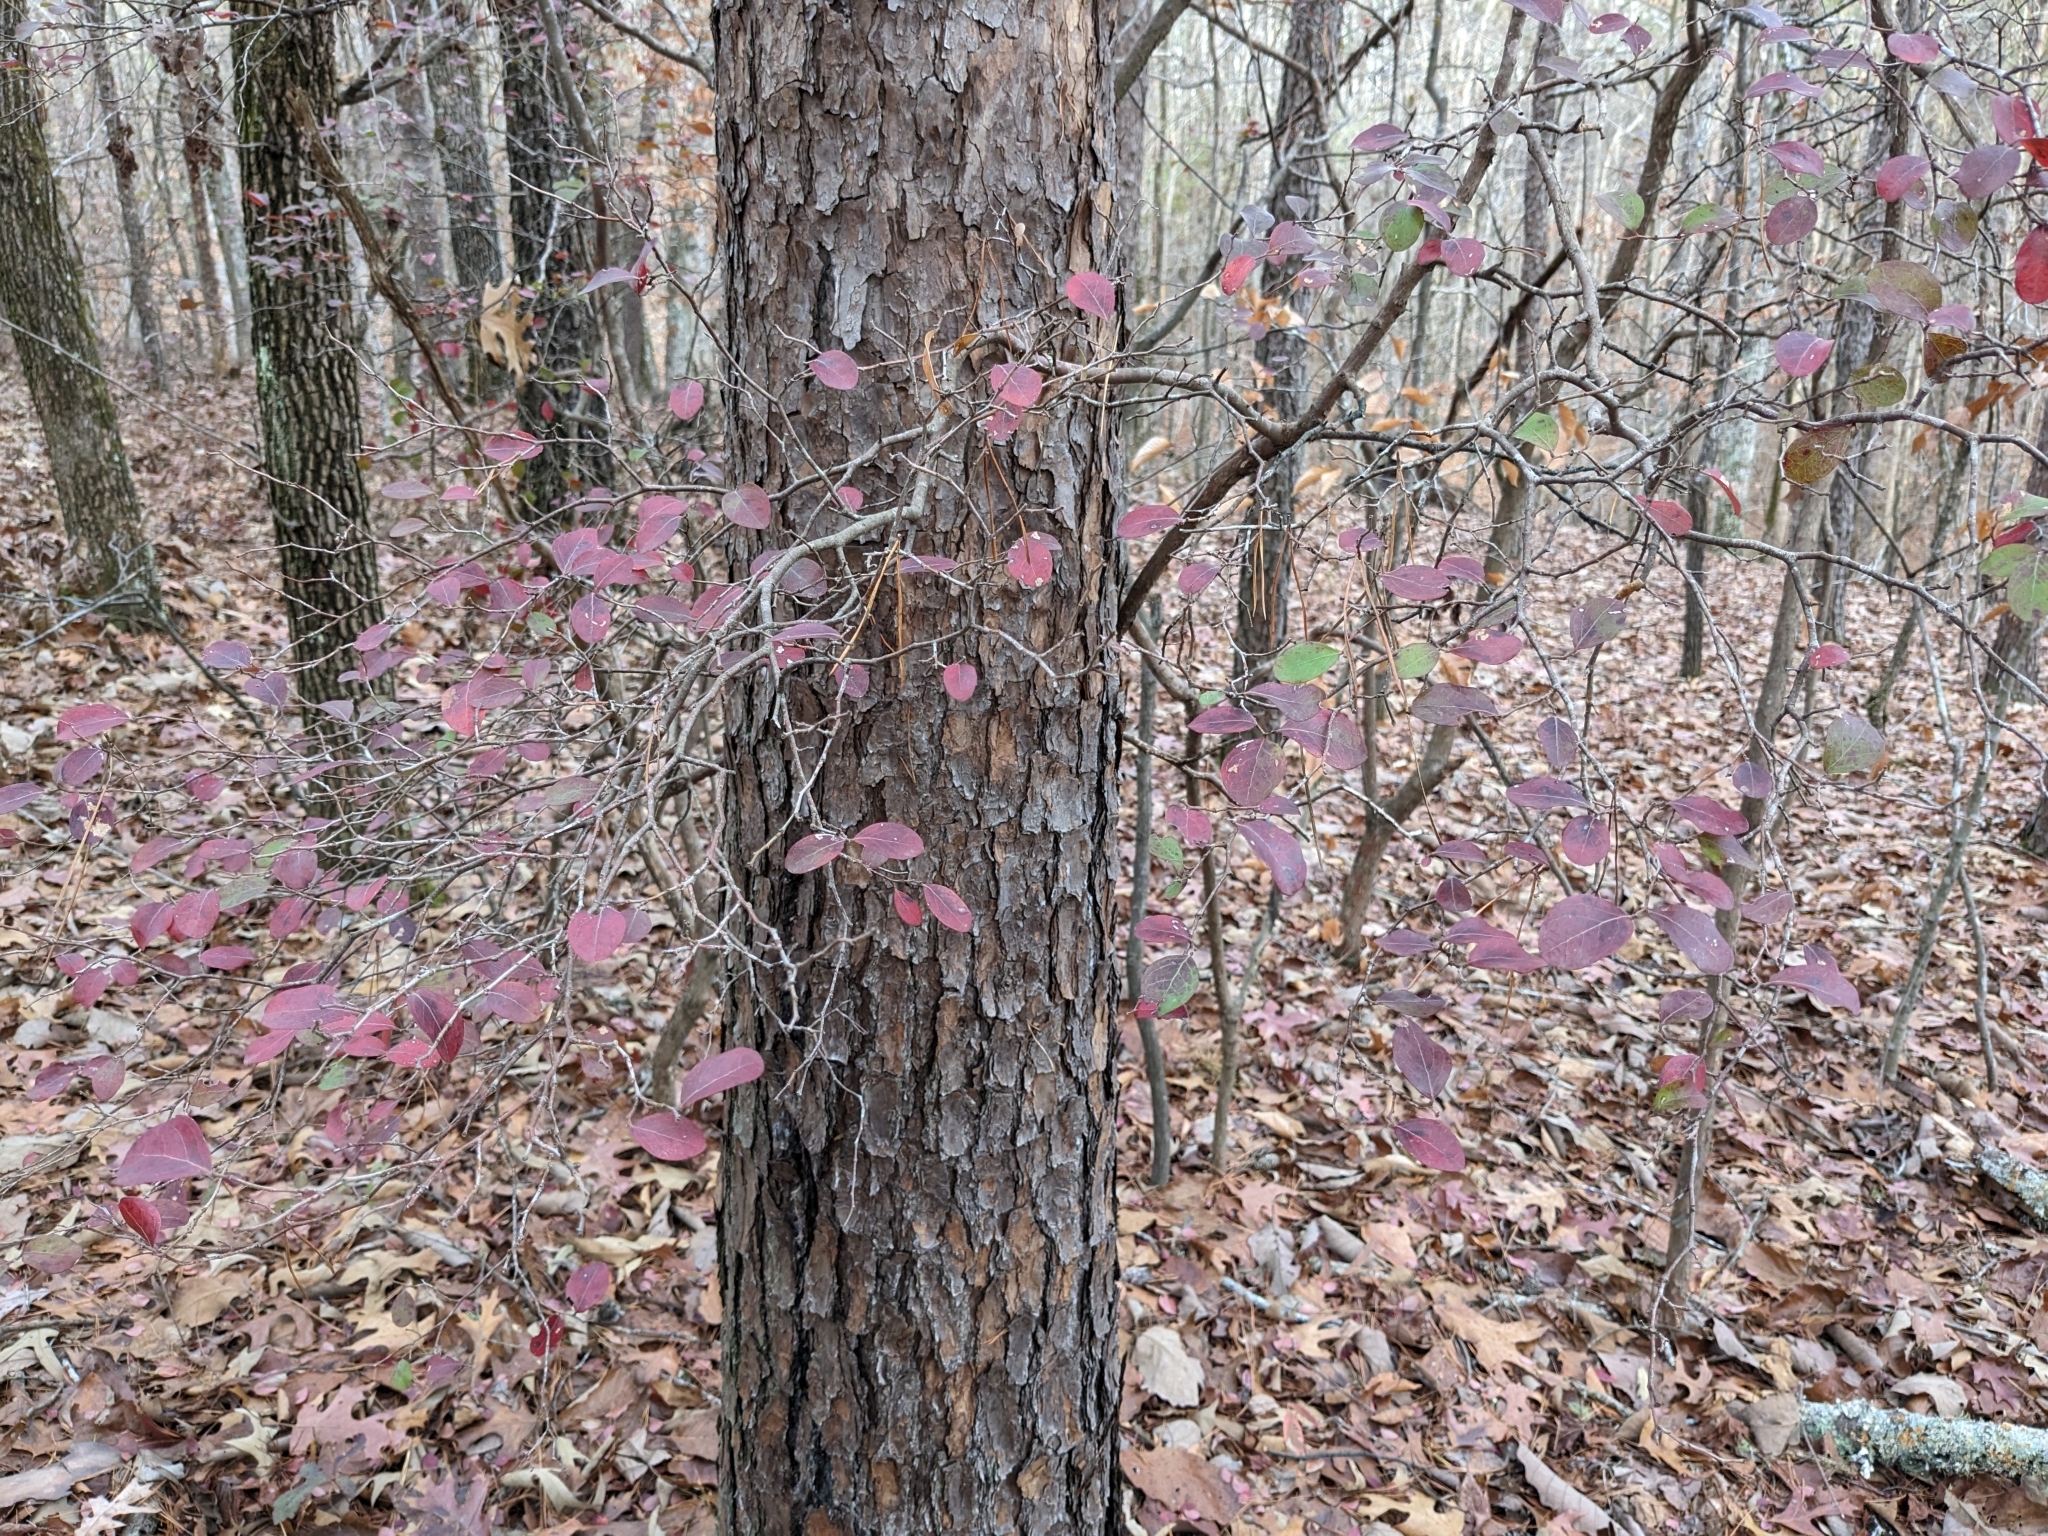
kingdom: Plantae
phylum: Tracheophyta
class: Magnoliopsida
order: Ericales
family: Ericaceae
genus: Vaccinium
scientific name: Vaccinium arboreum
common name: Farkleberry
